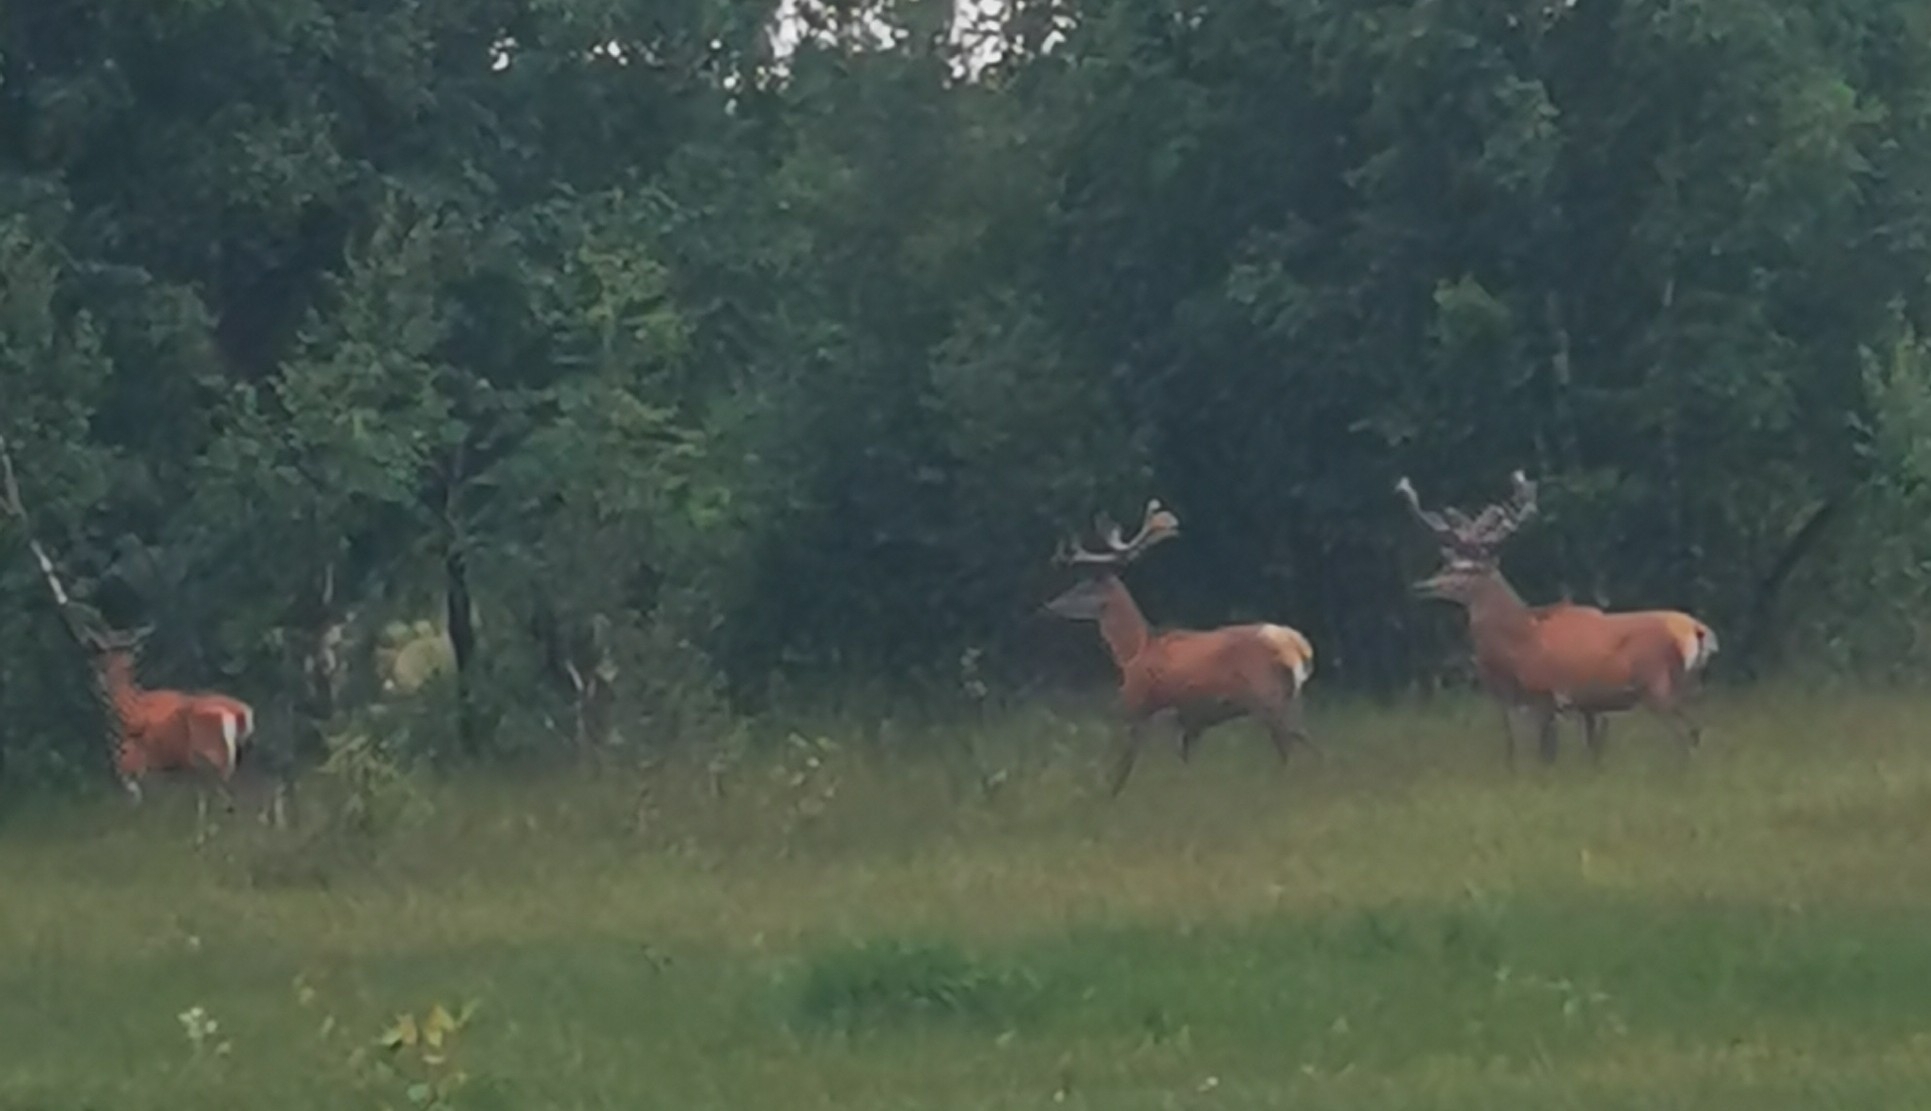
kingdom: Animalia
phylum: Chordata
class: Mammalia
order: Artiodactyla
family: Cervidae
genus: Cervus
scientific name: Cervus elaphus
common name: Red deer
